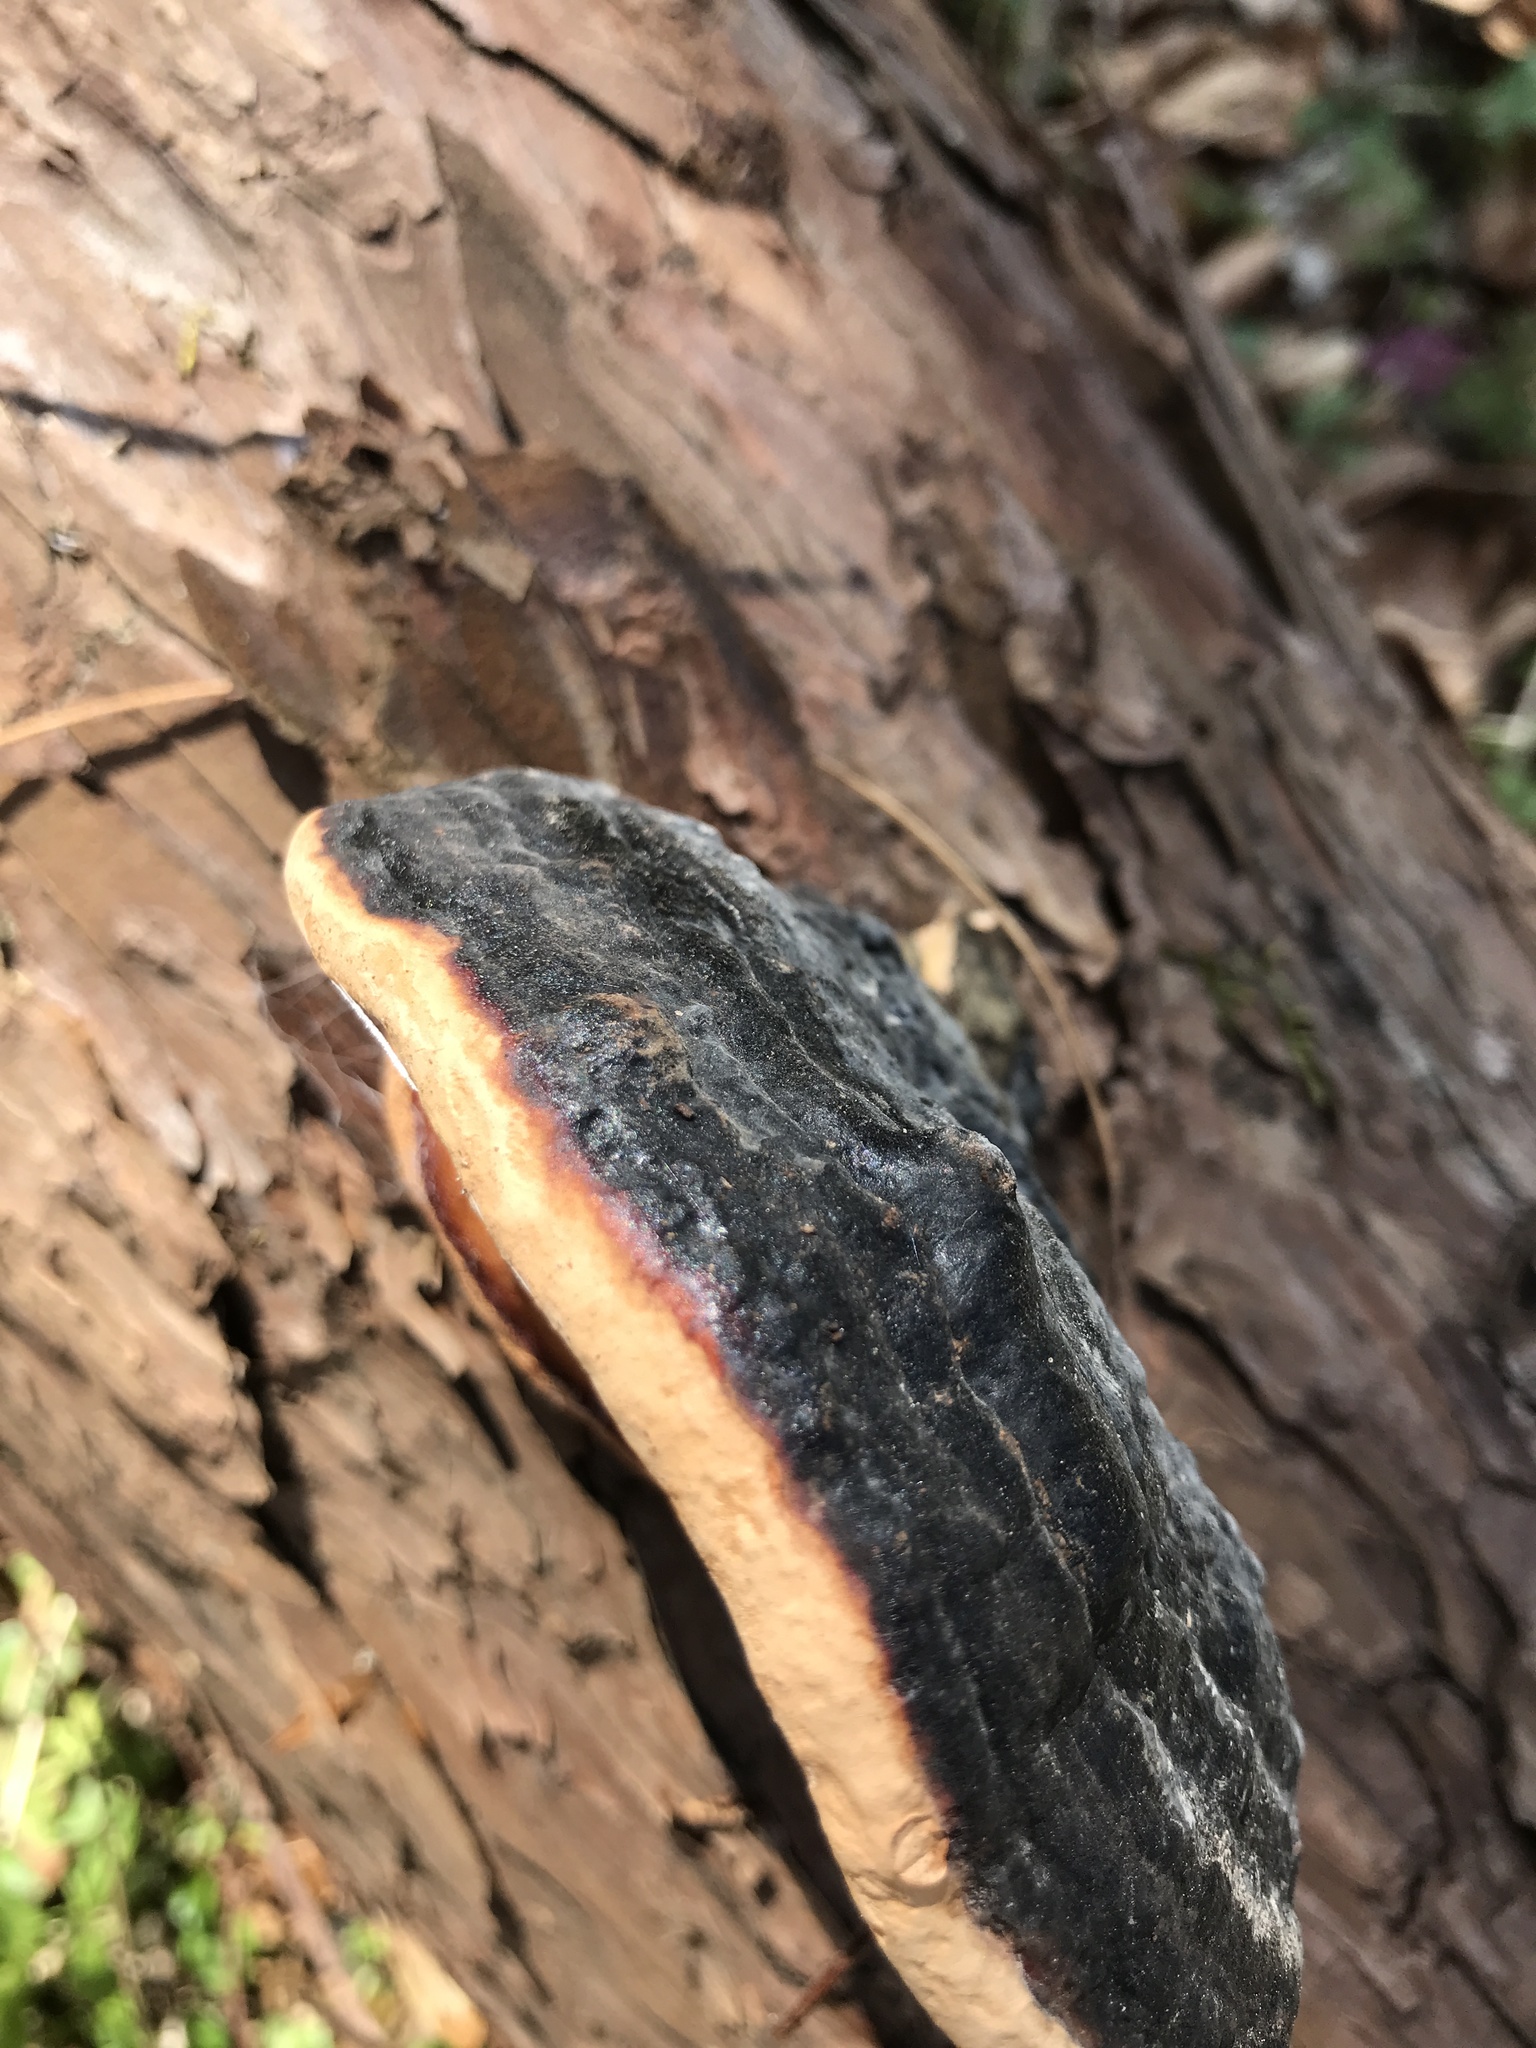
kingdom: Fungi
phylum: Basidiomycota
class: Agaricomycetes
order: Polyporales
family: Fomitopsidaceae
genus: Fomitopsis
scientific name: Fomitopsis pinicola
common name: Red-belted bracket
